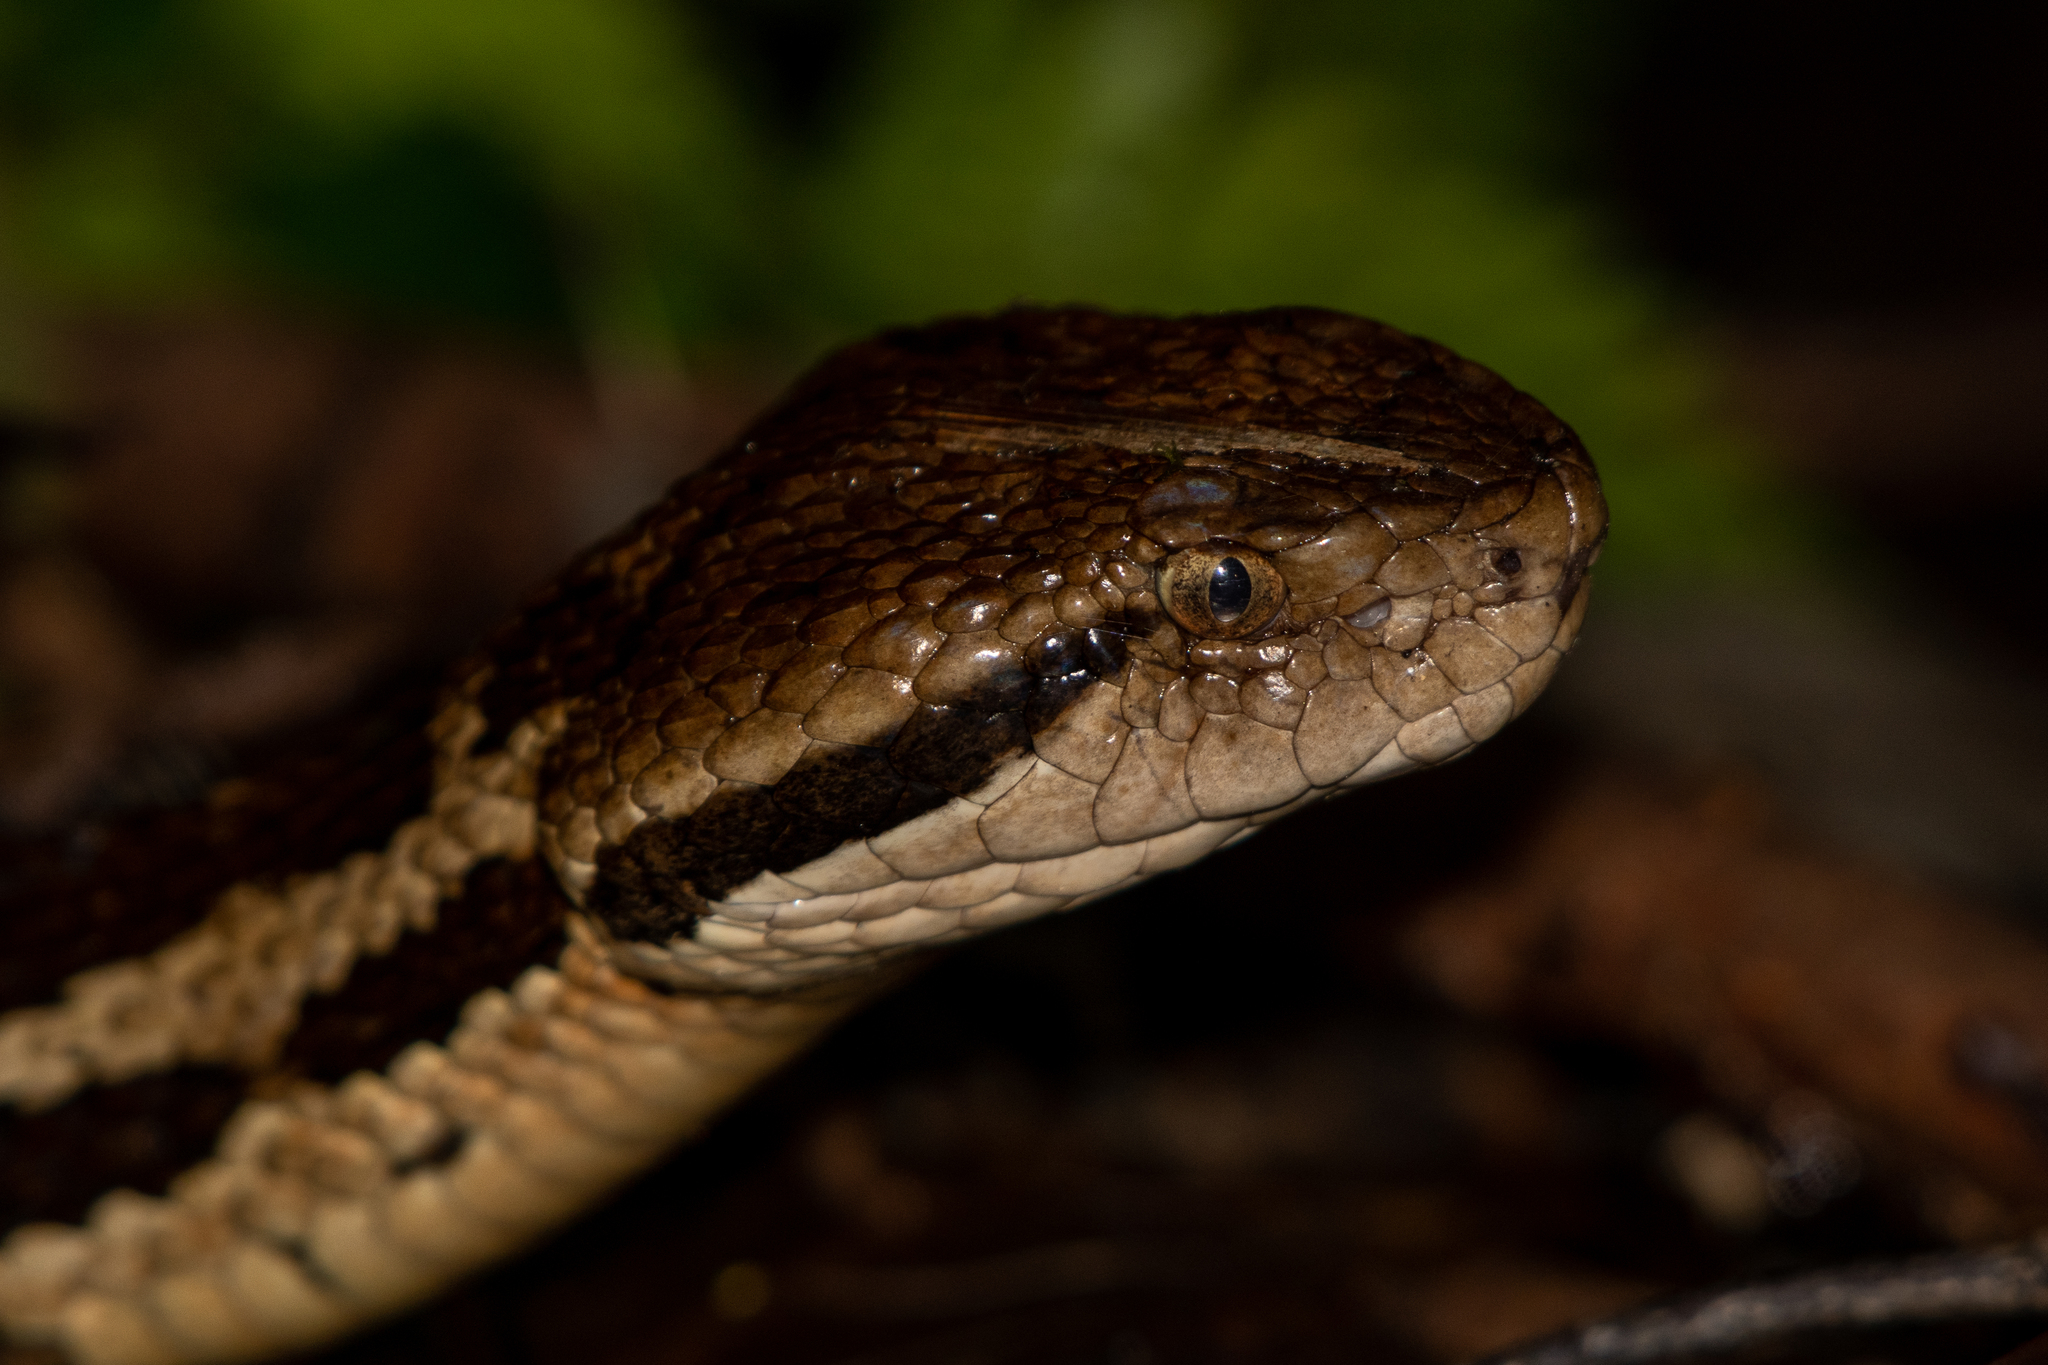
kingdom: Animalia
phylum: Chordata
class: Squamata
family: Viperidae
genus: Cerrophidion
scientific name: Cerrophidion wilsoni
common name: Honduras montane pitviper
